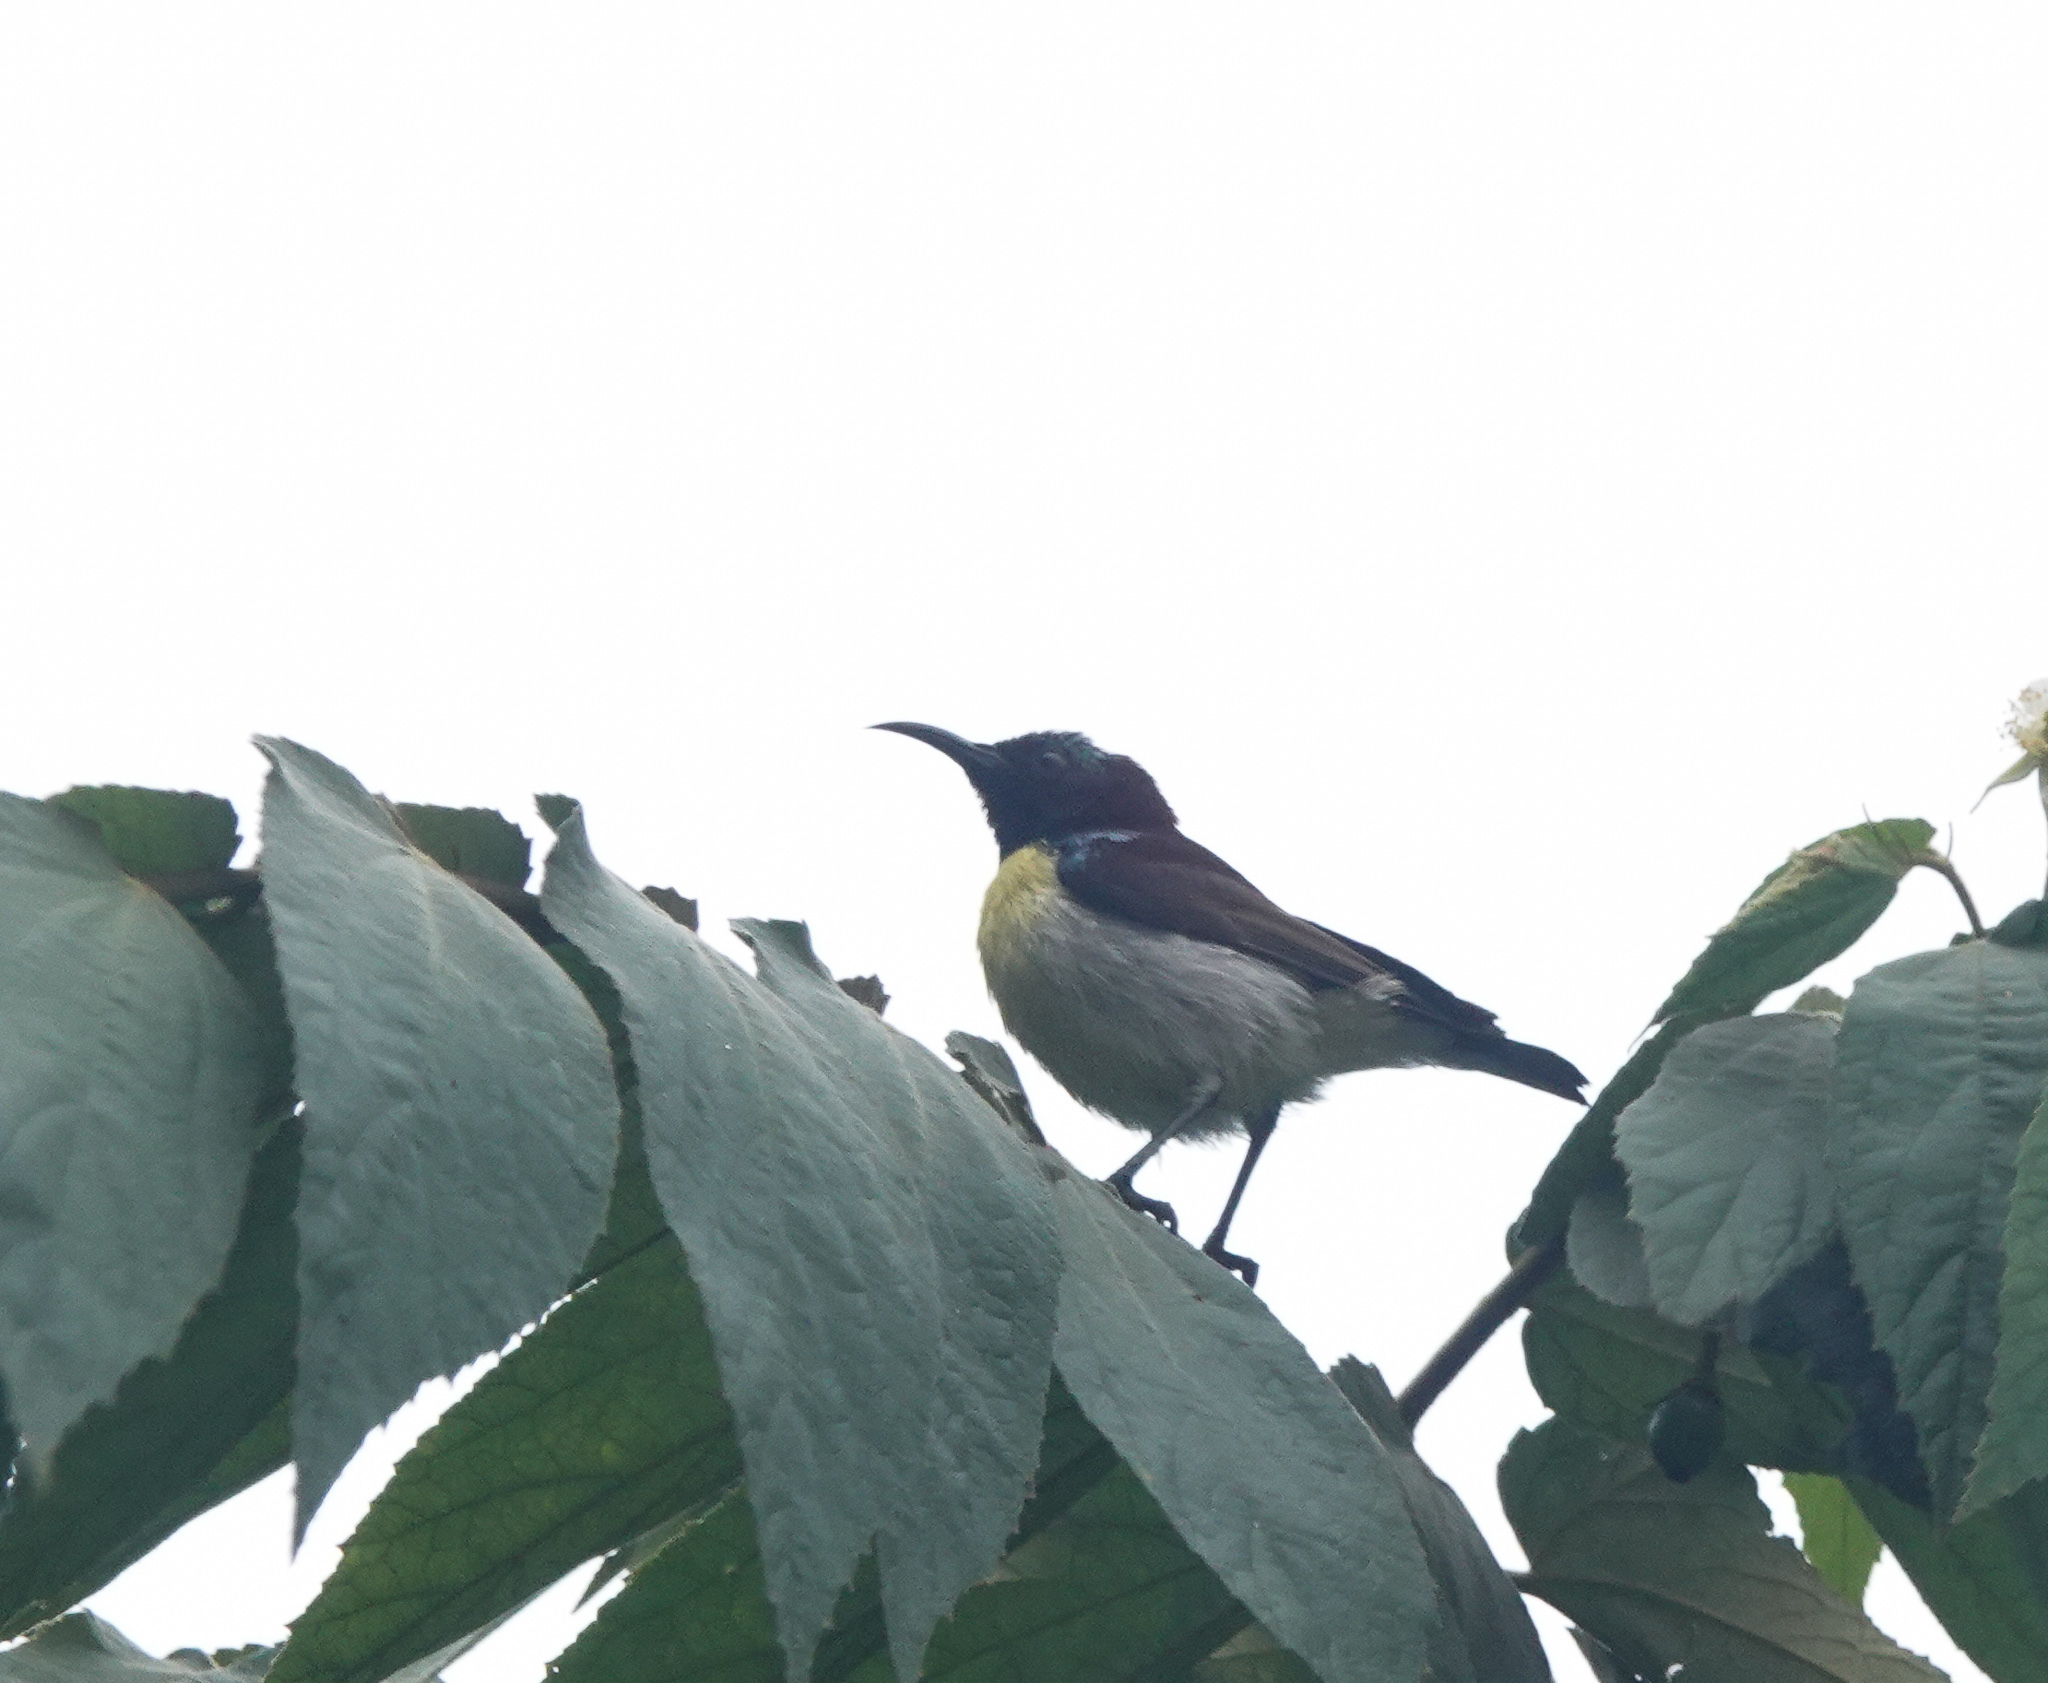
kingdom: Animalia
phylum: Chordata
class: Aves
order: Passeriformes
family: Nectariniidae
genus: Leptocoma
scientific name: Leptocoma zeylonica
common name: Purple-rumped sunbird
